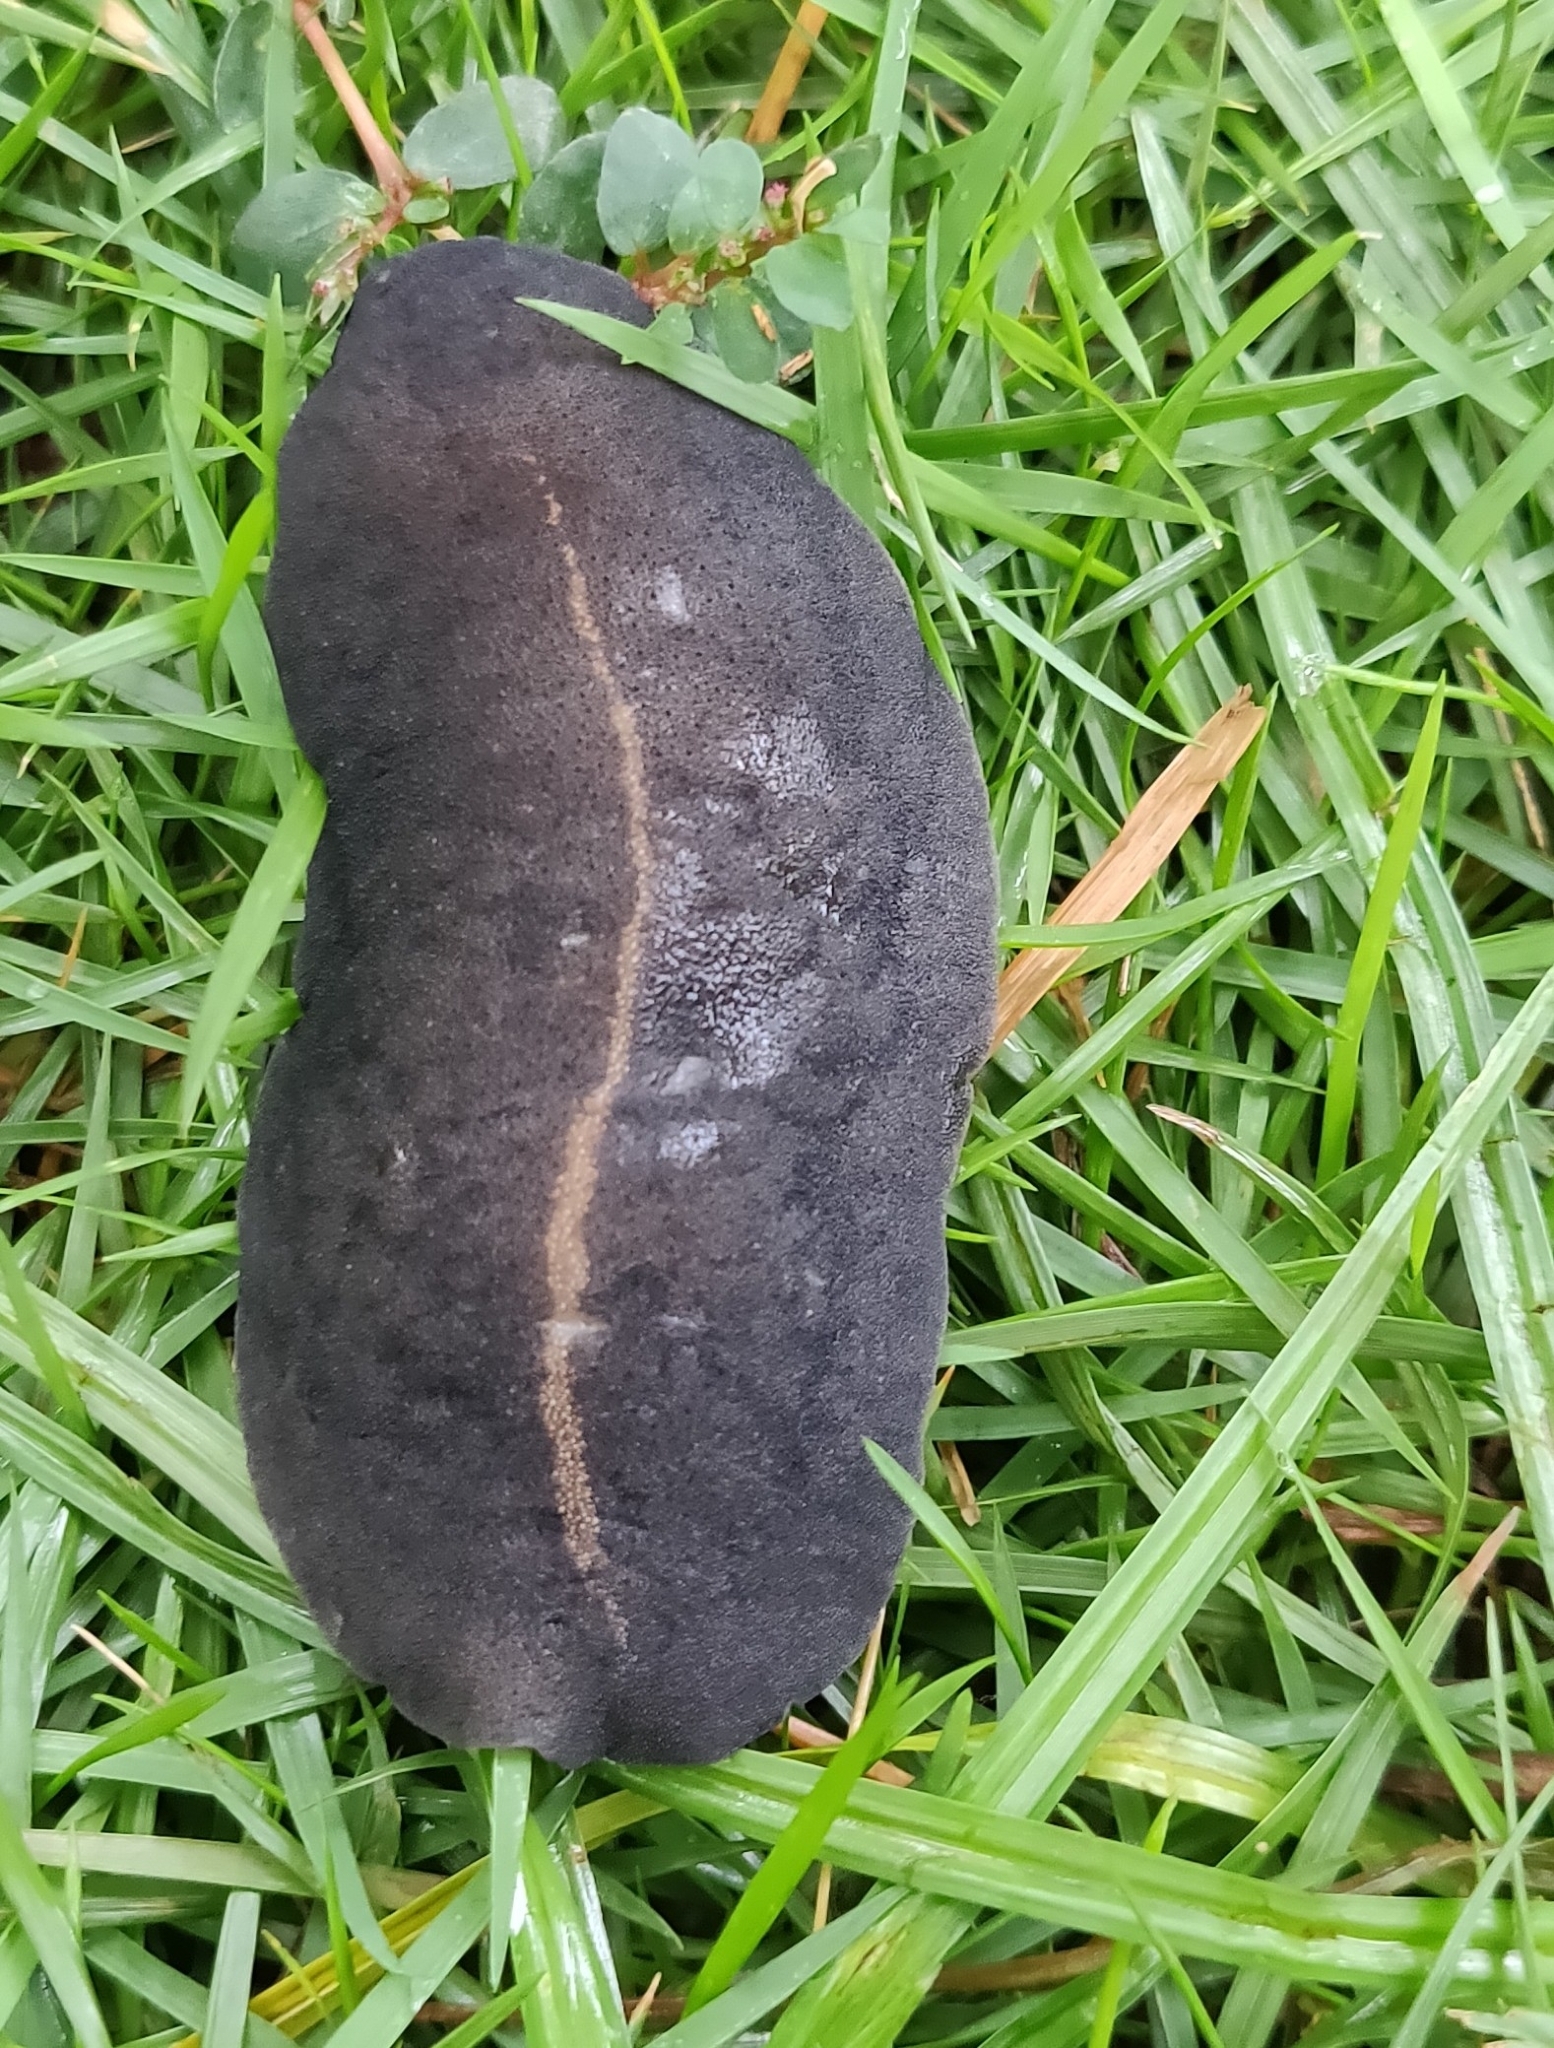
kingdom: Animalia
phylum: Mollusca
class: Gastropoda
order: Systellommatophora
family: Veronicellidae
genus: Laevicaulis
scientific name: Laevicaulis alte
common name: Tropical leatherleaf
